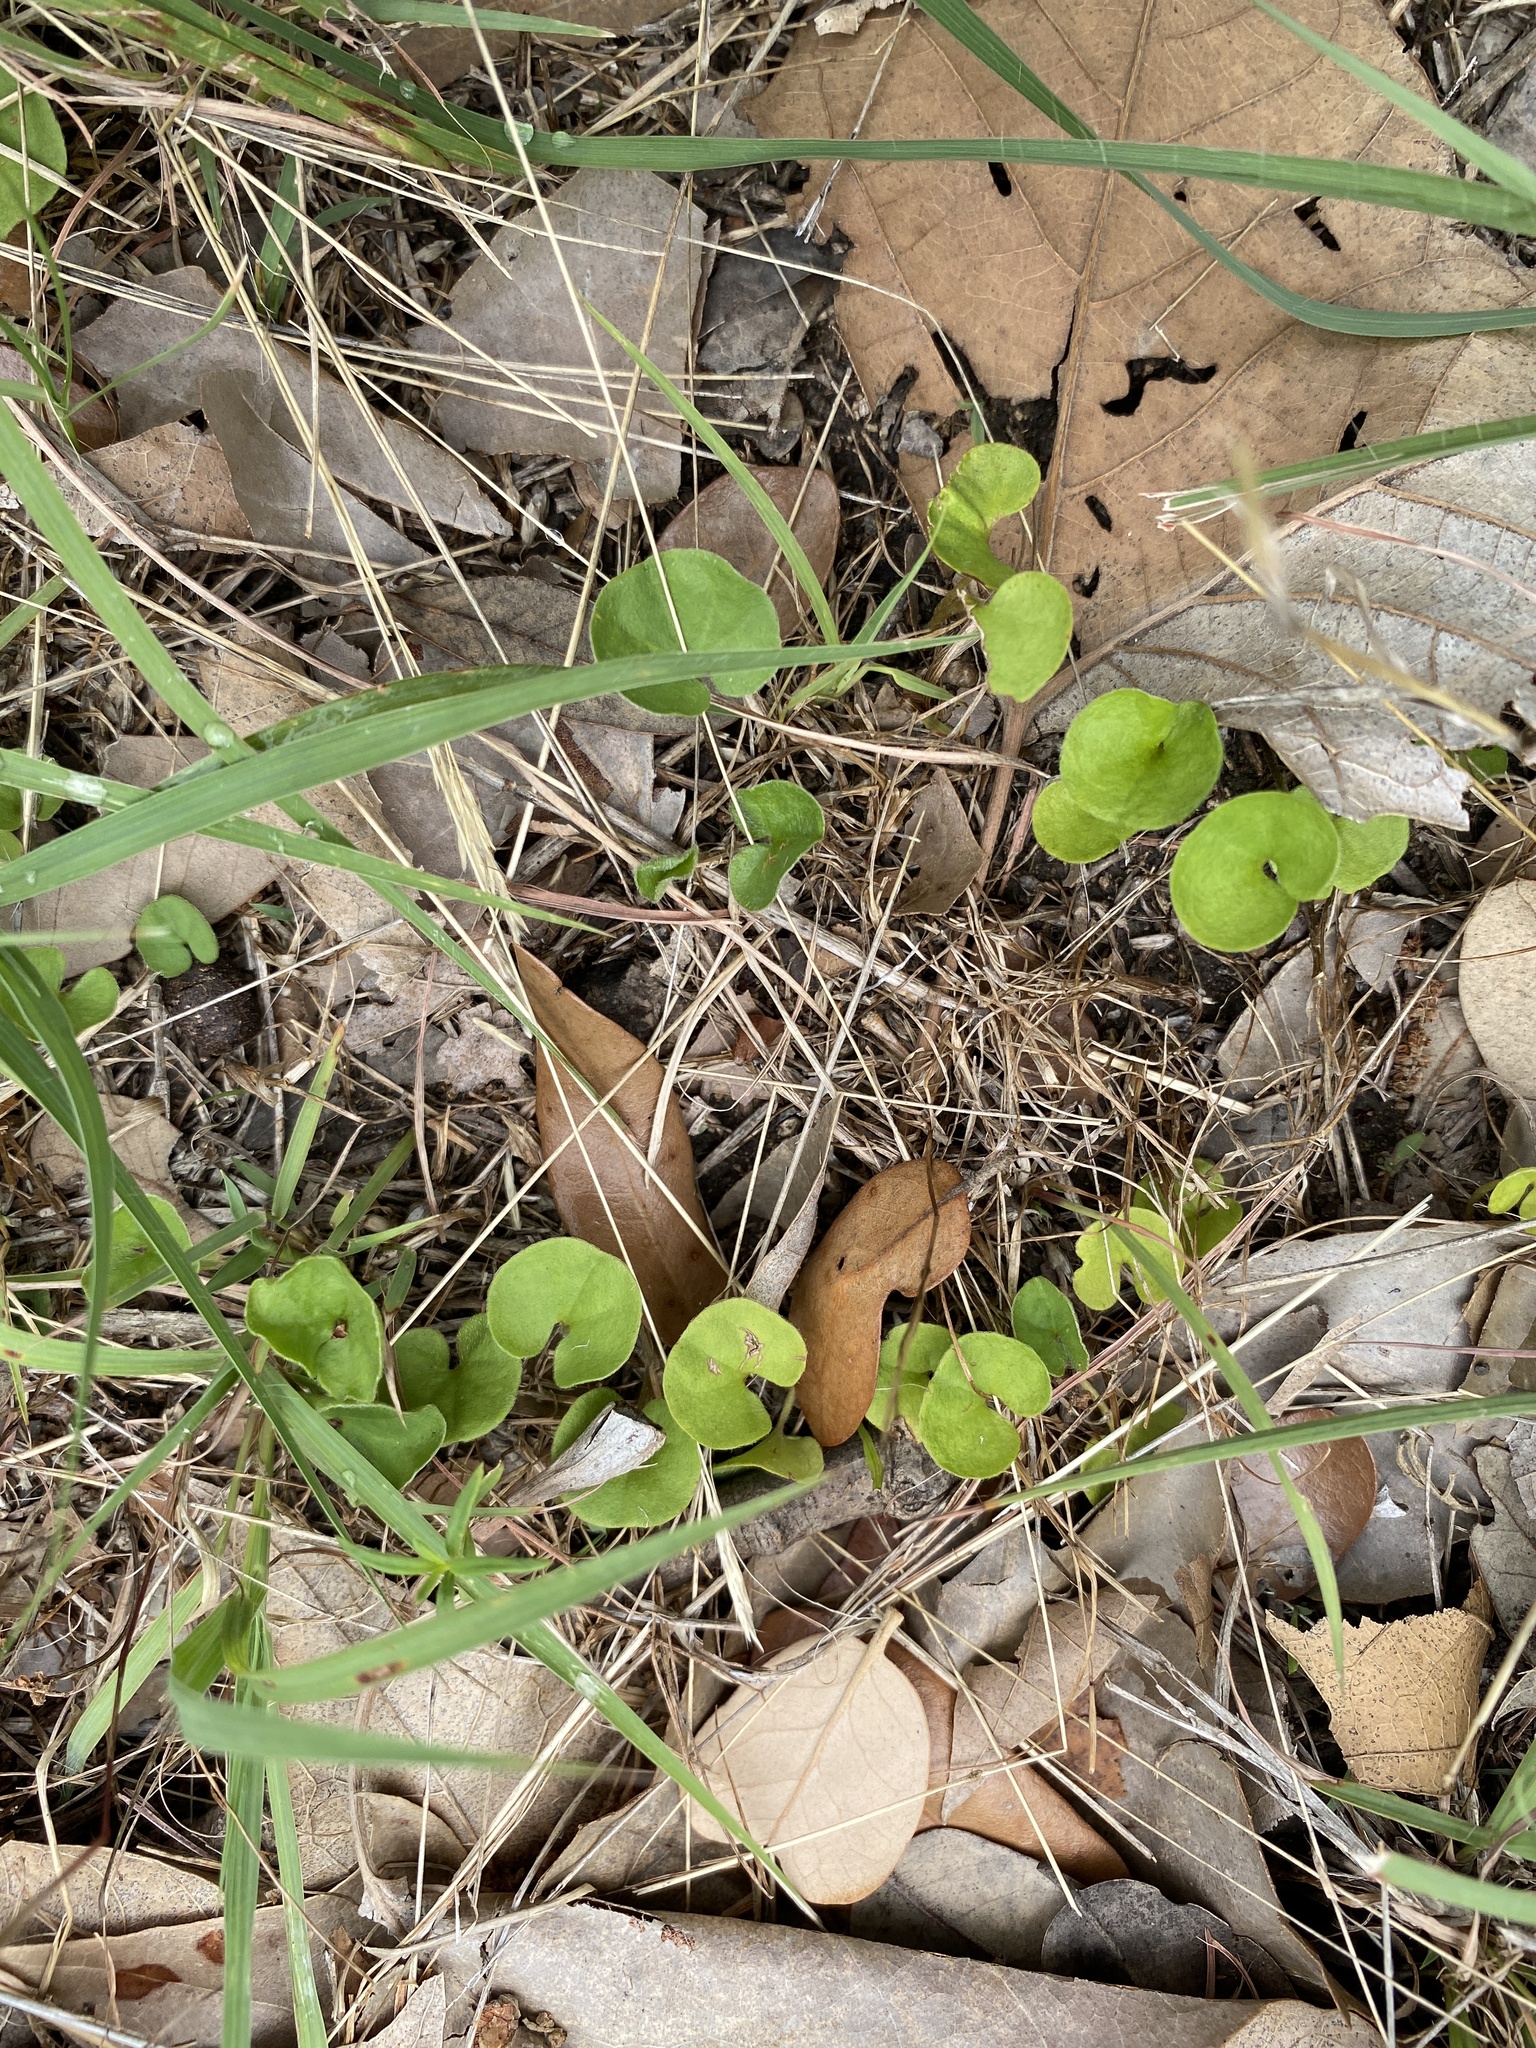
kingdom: Plantae
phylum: Tracheophyta
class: Magnoliopsida
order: Solanales
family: Convolvulaceae
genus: Dichondra
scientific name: Dichondra carolinensis
